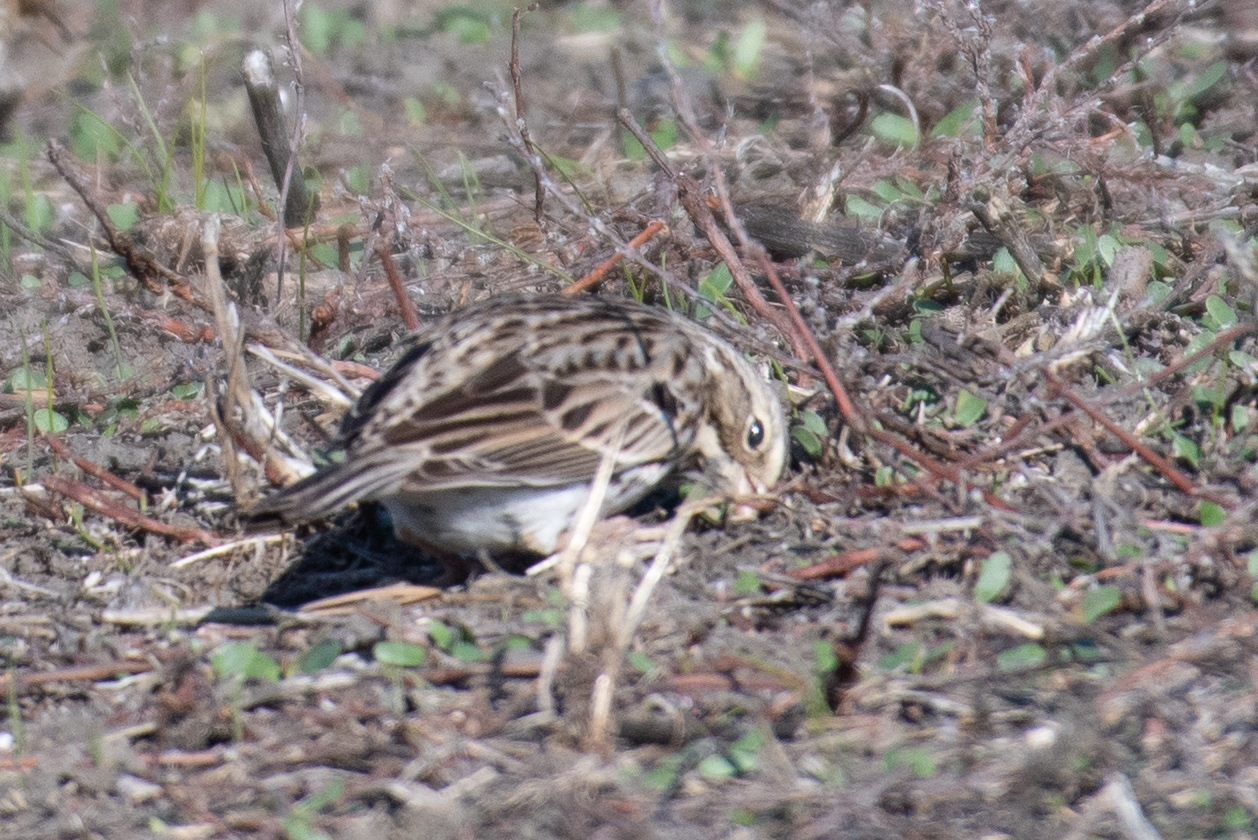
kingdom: Animalia
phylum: Chordata
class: Aves
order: Passeriformes
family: Passerellidae
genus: Passerculus
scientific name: Passerculus sandwichensis
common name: Savannah sparrow
